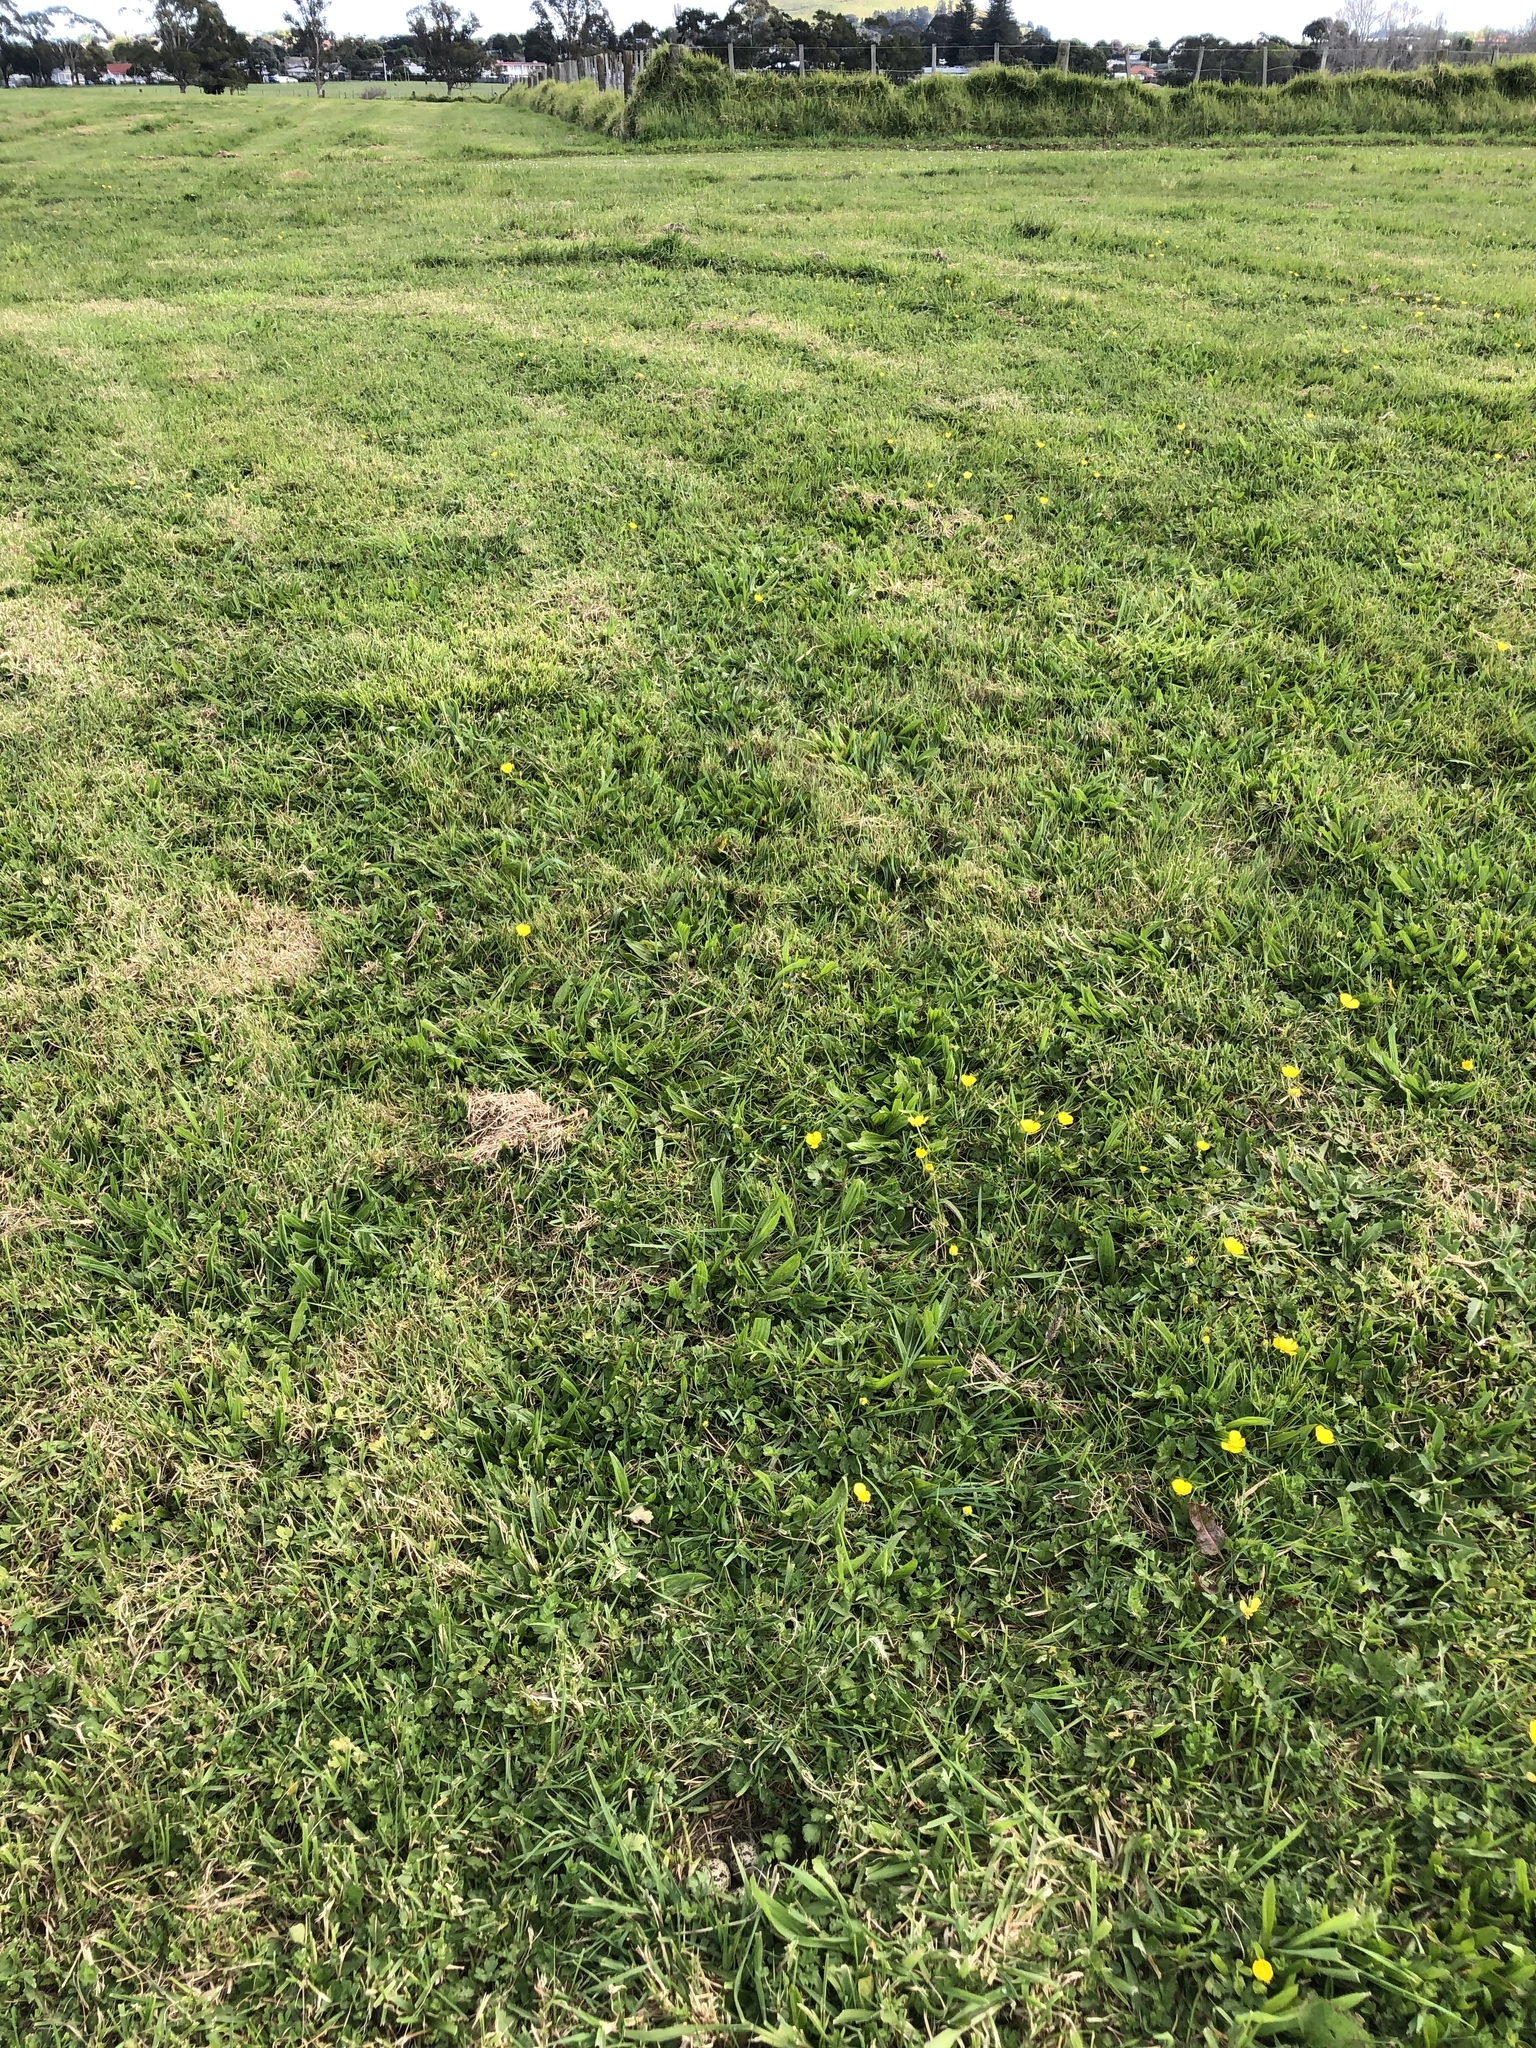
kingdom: Animalia
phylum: Chordata
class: Aves
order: Charadriiformes
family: Charadriidae
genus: Anarhynchus
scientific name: Anarhynchus
